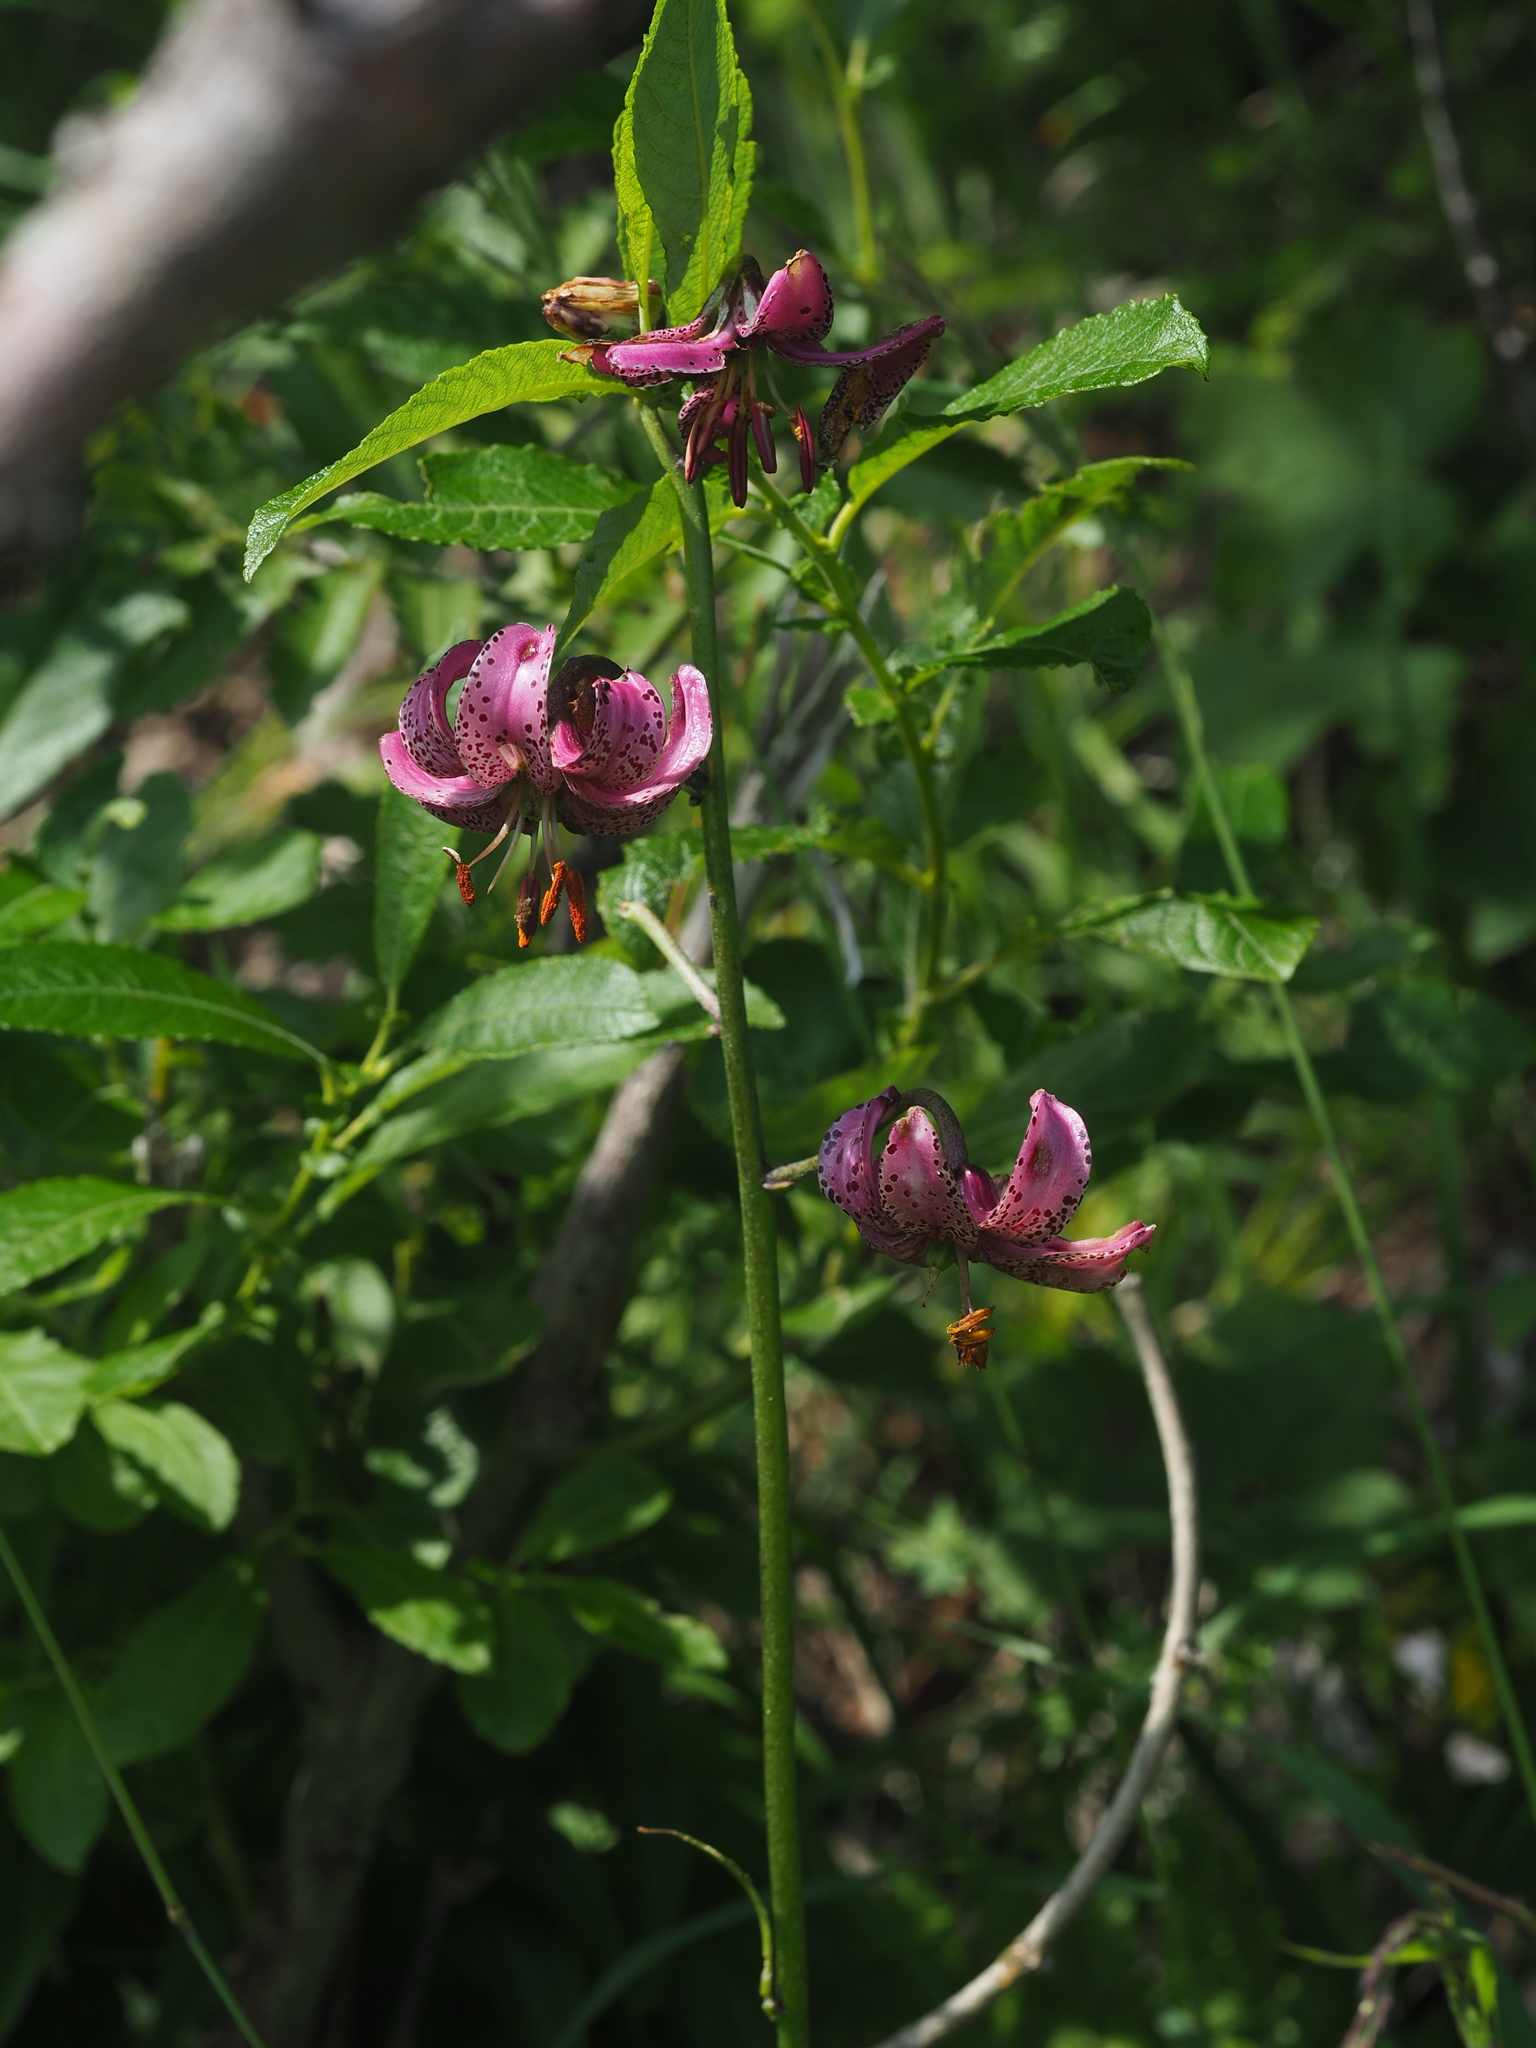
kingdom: Plantae
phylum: Tracheophyta
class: Liliopsida
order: Liliales
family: Liliaceae
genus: Lilium
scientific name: Lilium martagon
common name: Martagon lily
